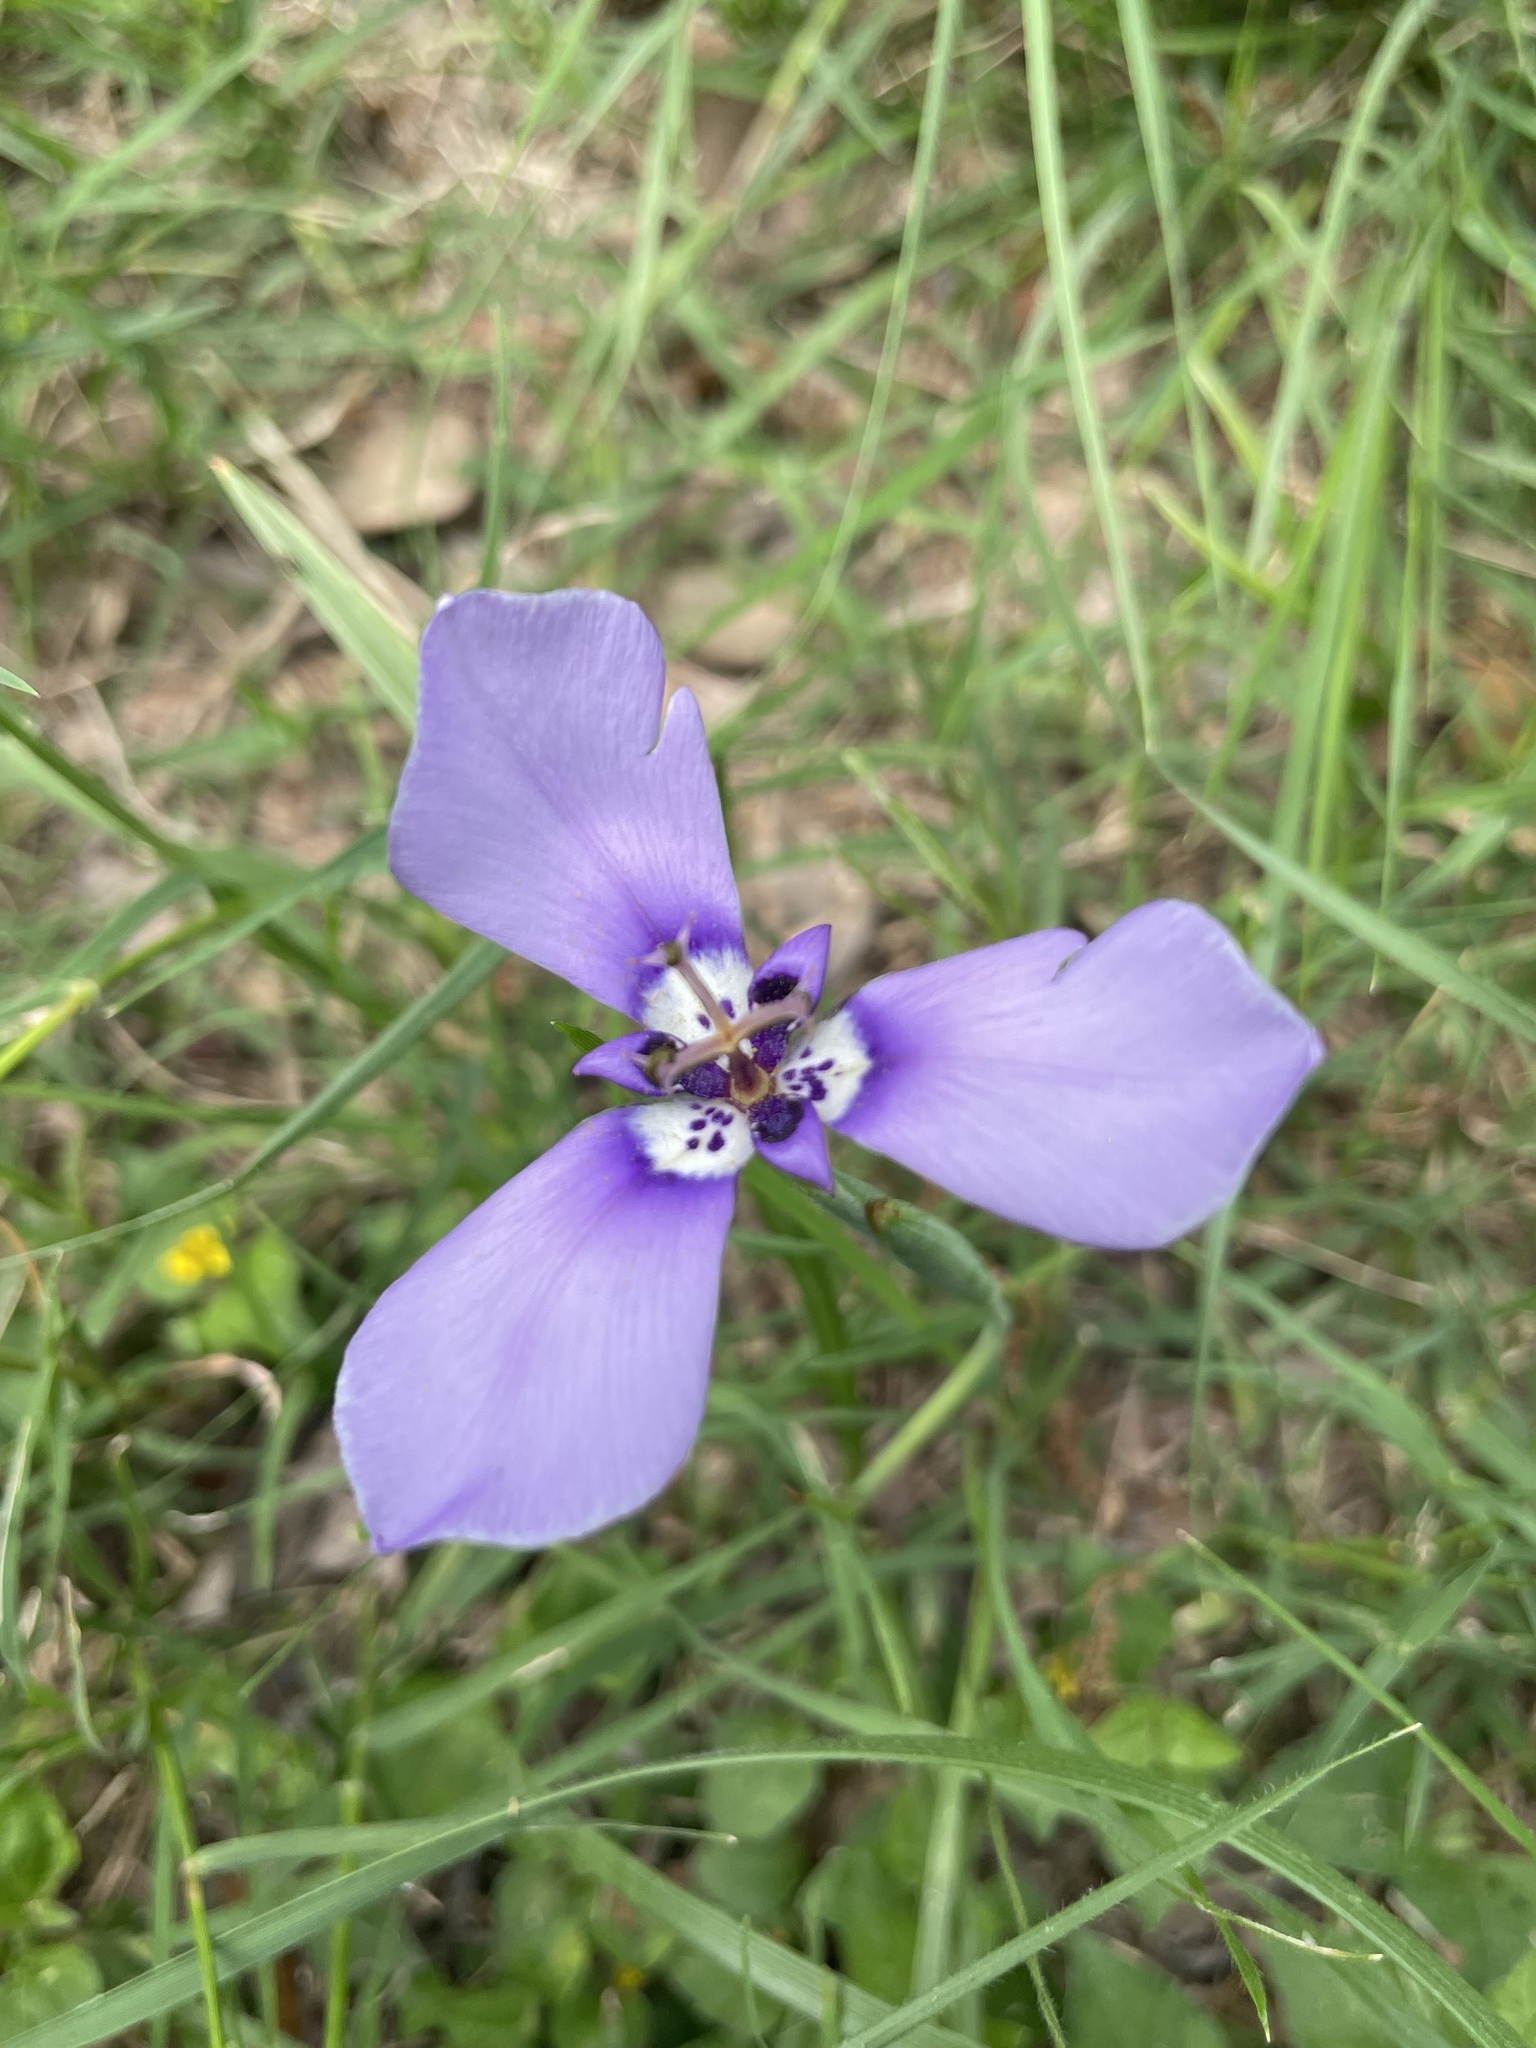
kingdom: Plantae
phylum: Tracheophyta
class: Liliopsida
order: Asparagales
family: Iridaceae
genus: Herbertia
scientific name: Herbertia lahue
